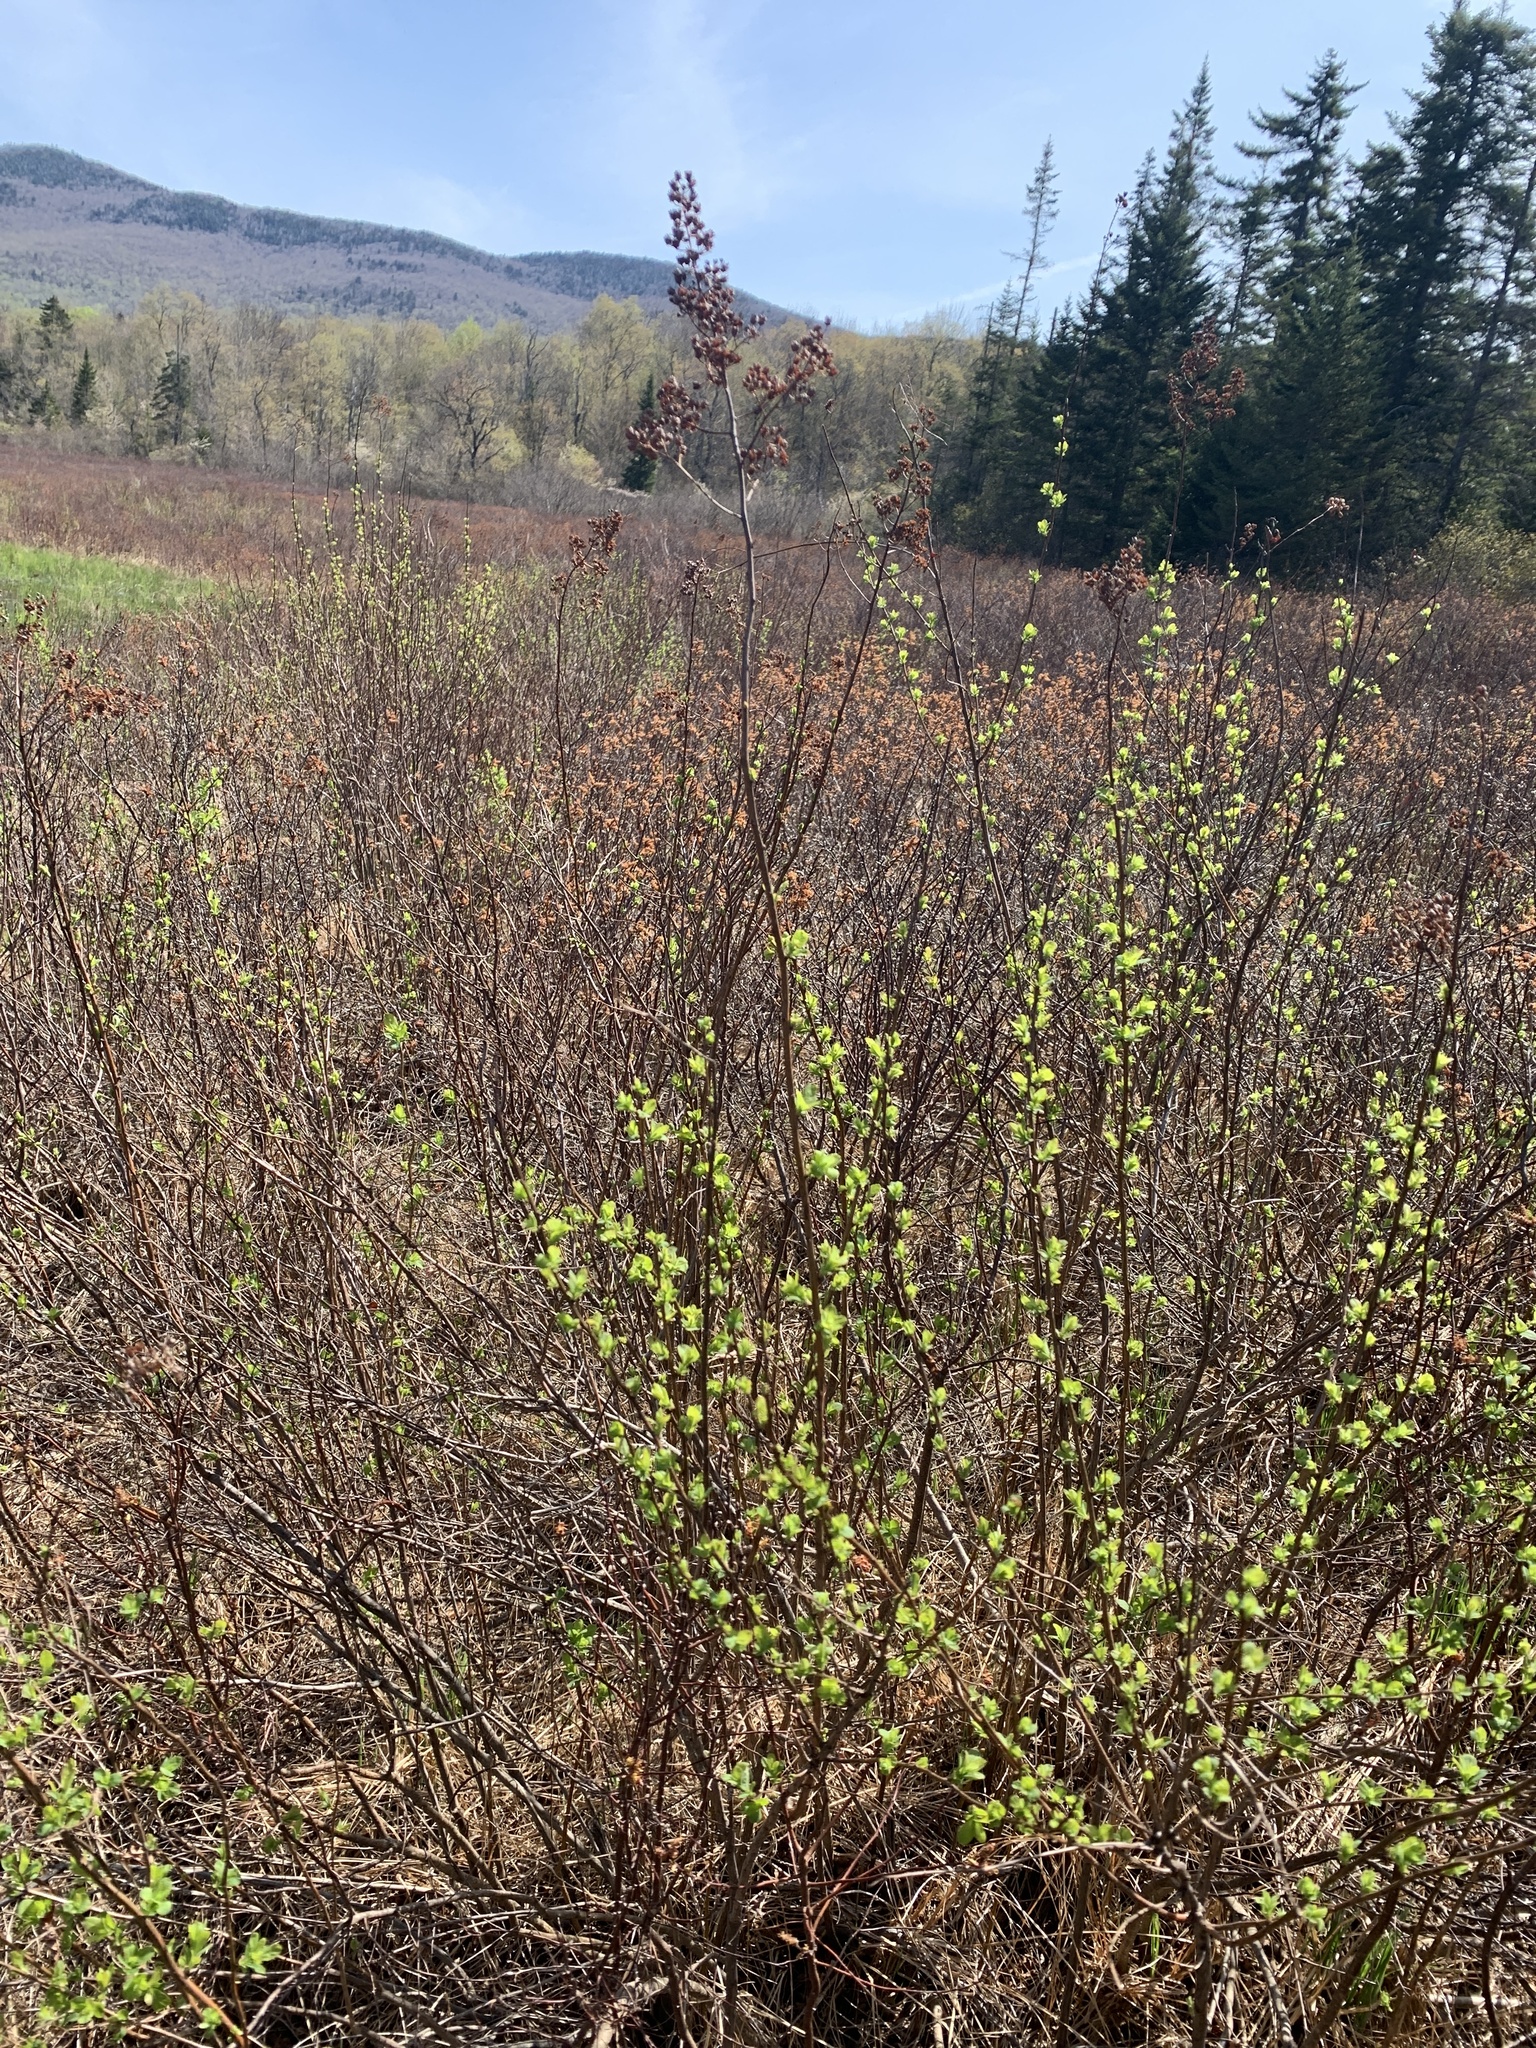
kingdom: Plantae
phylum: Tracheophyta
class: Magnoliopsida
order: Rosales
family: Rosaceae
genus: Spiraea
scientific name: Spiraea alba
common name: Pale bridewort
